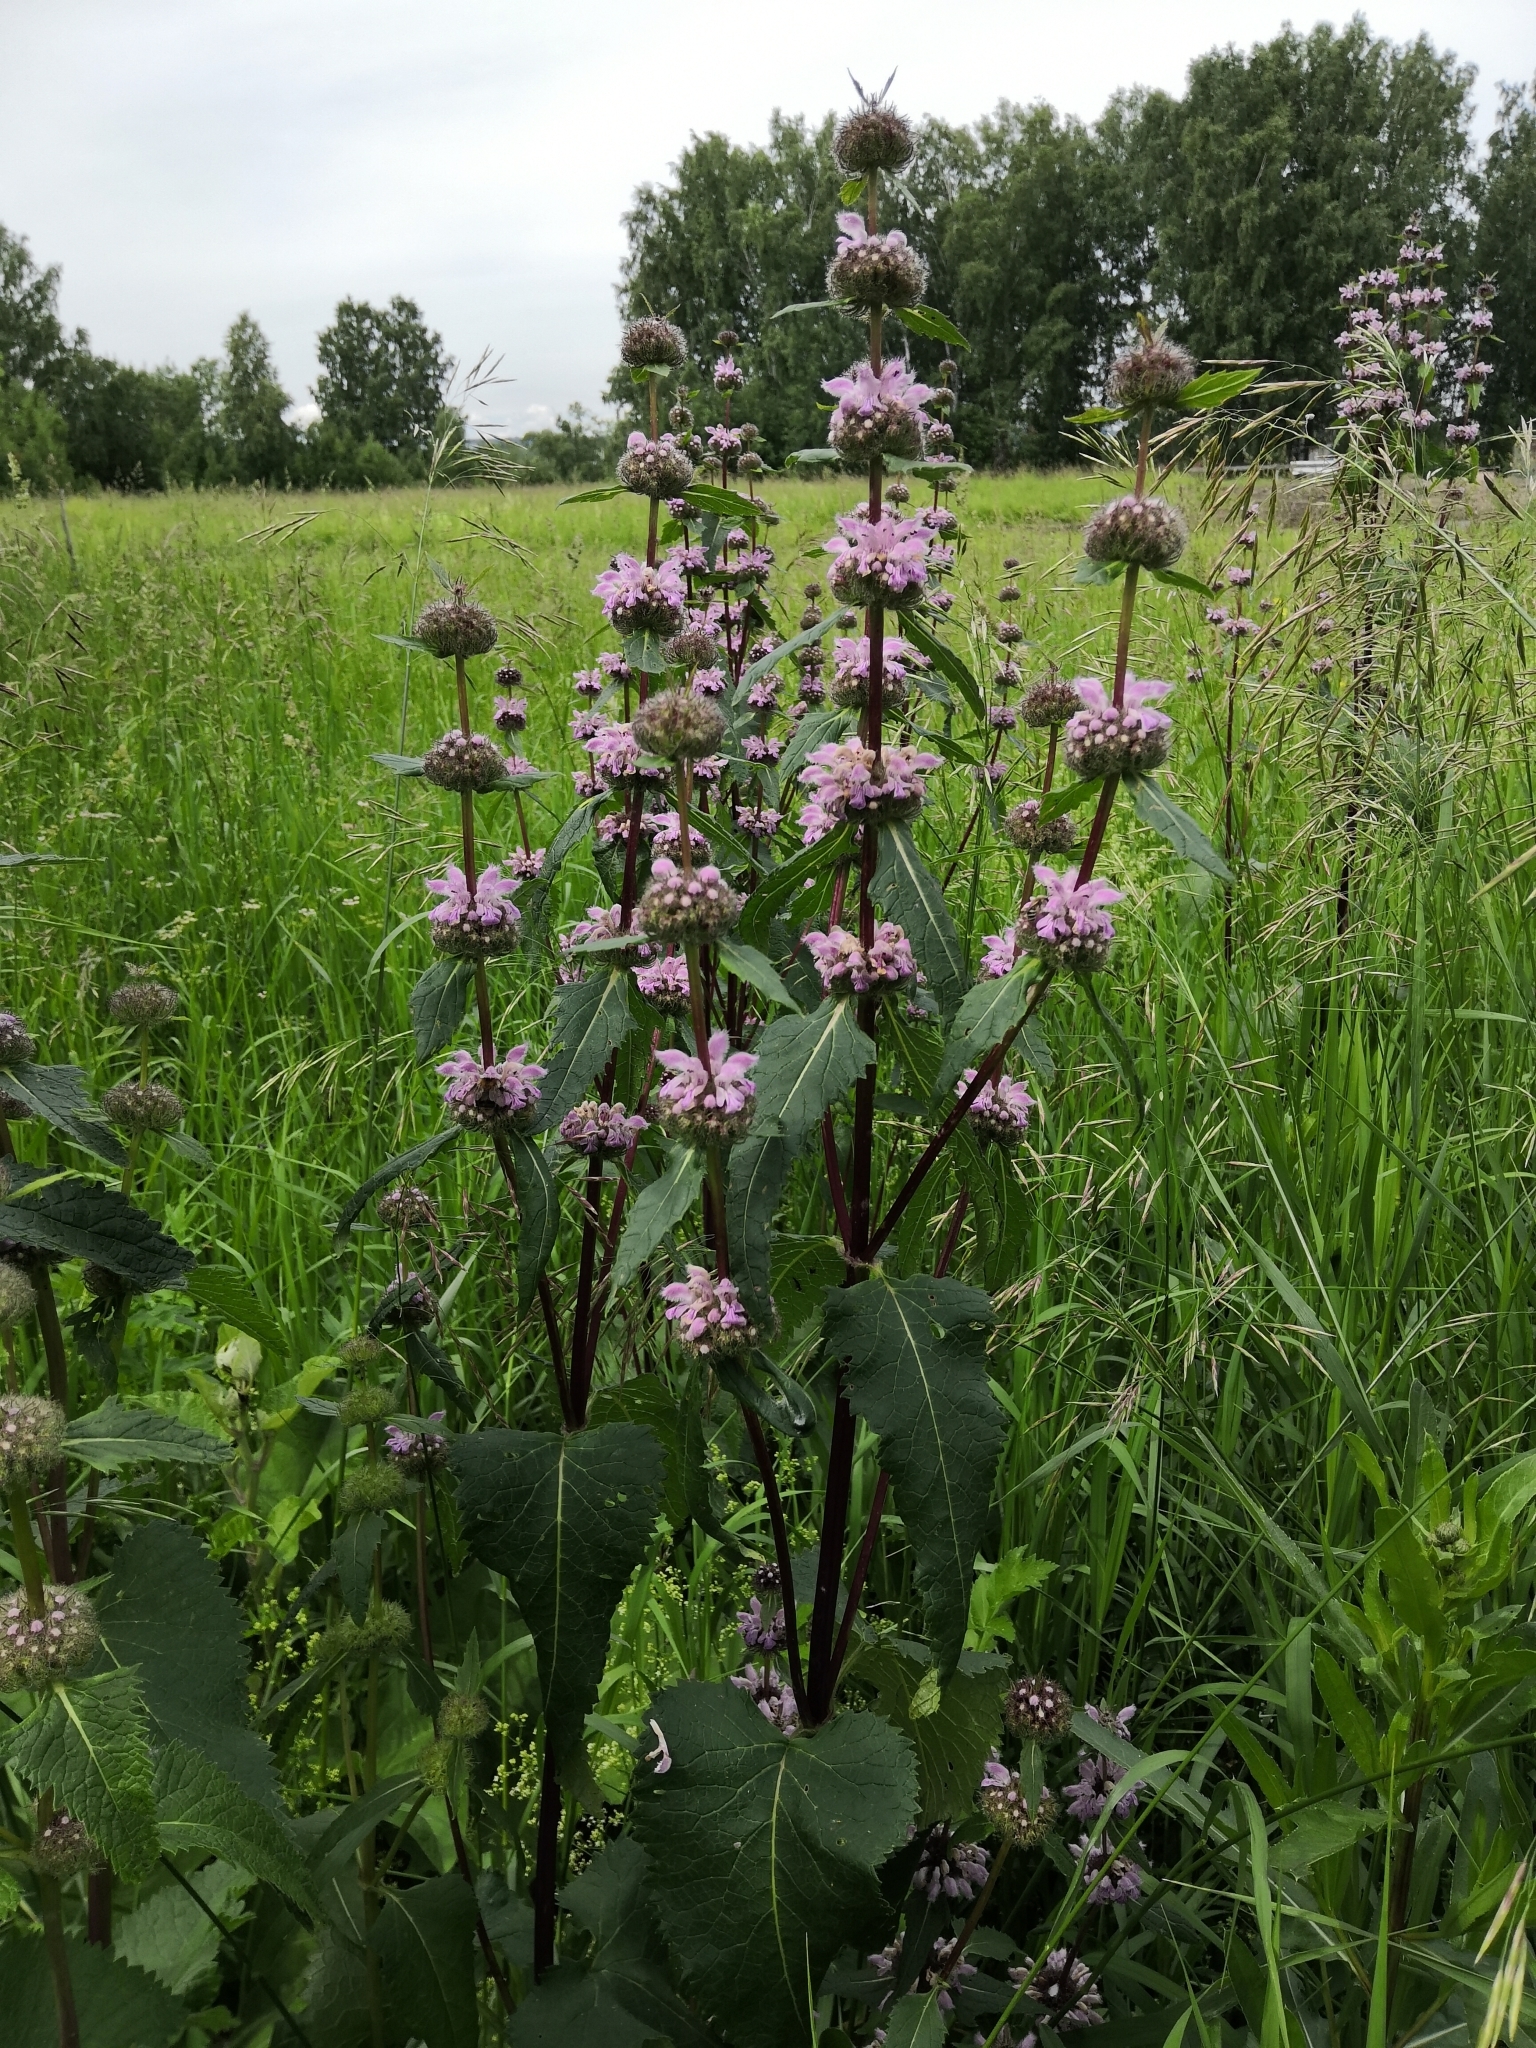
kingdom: Plantae
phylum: Tracheophyta
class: Magnoliopsida
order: Lamiales
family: Lamiaceae
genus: Phlomoides
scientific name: Phlomoides tuberosa
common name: Tuberous jerusalem sage
